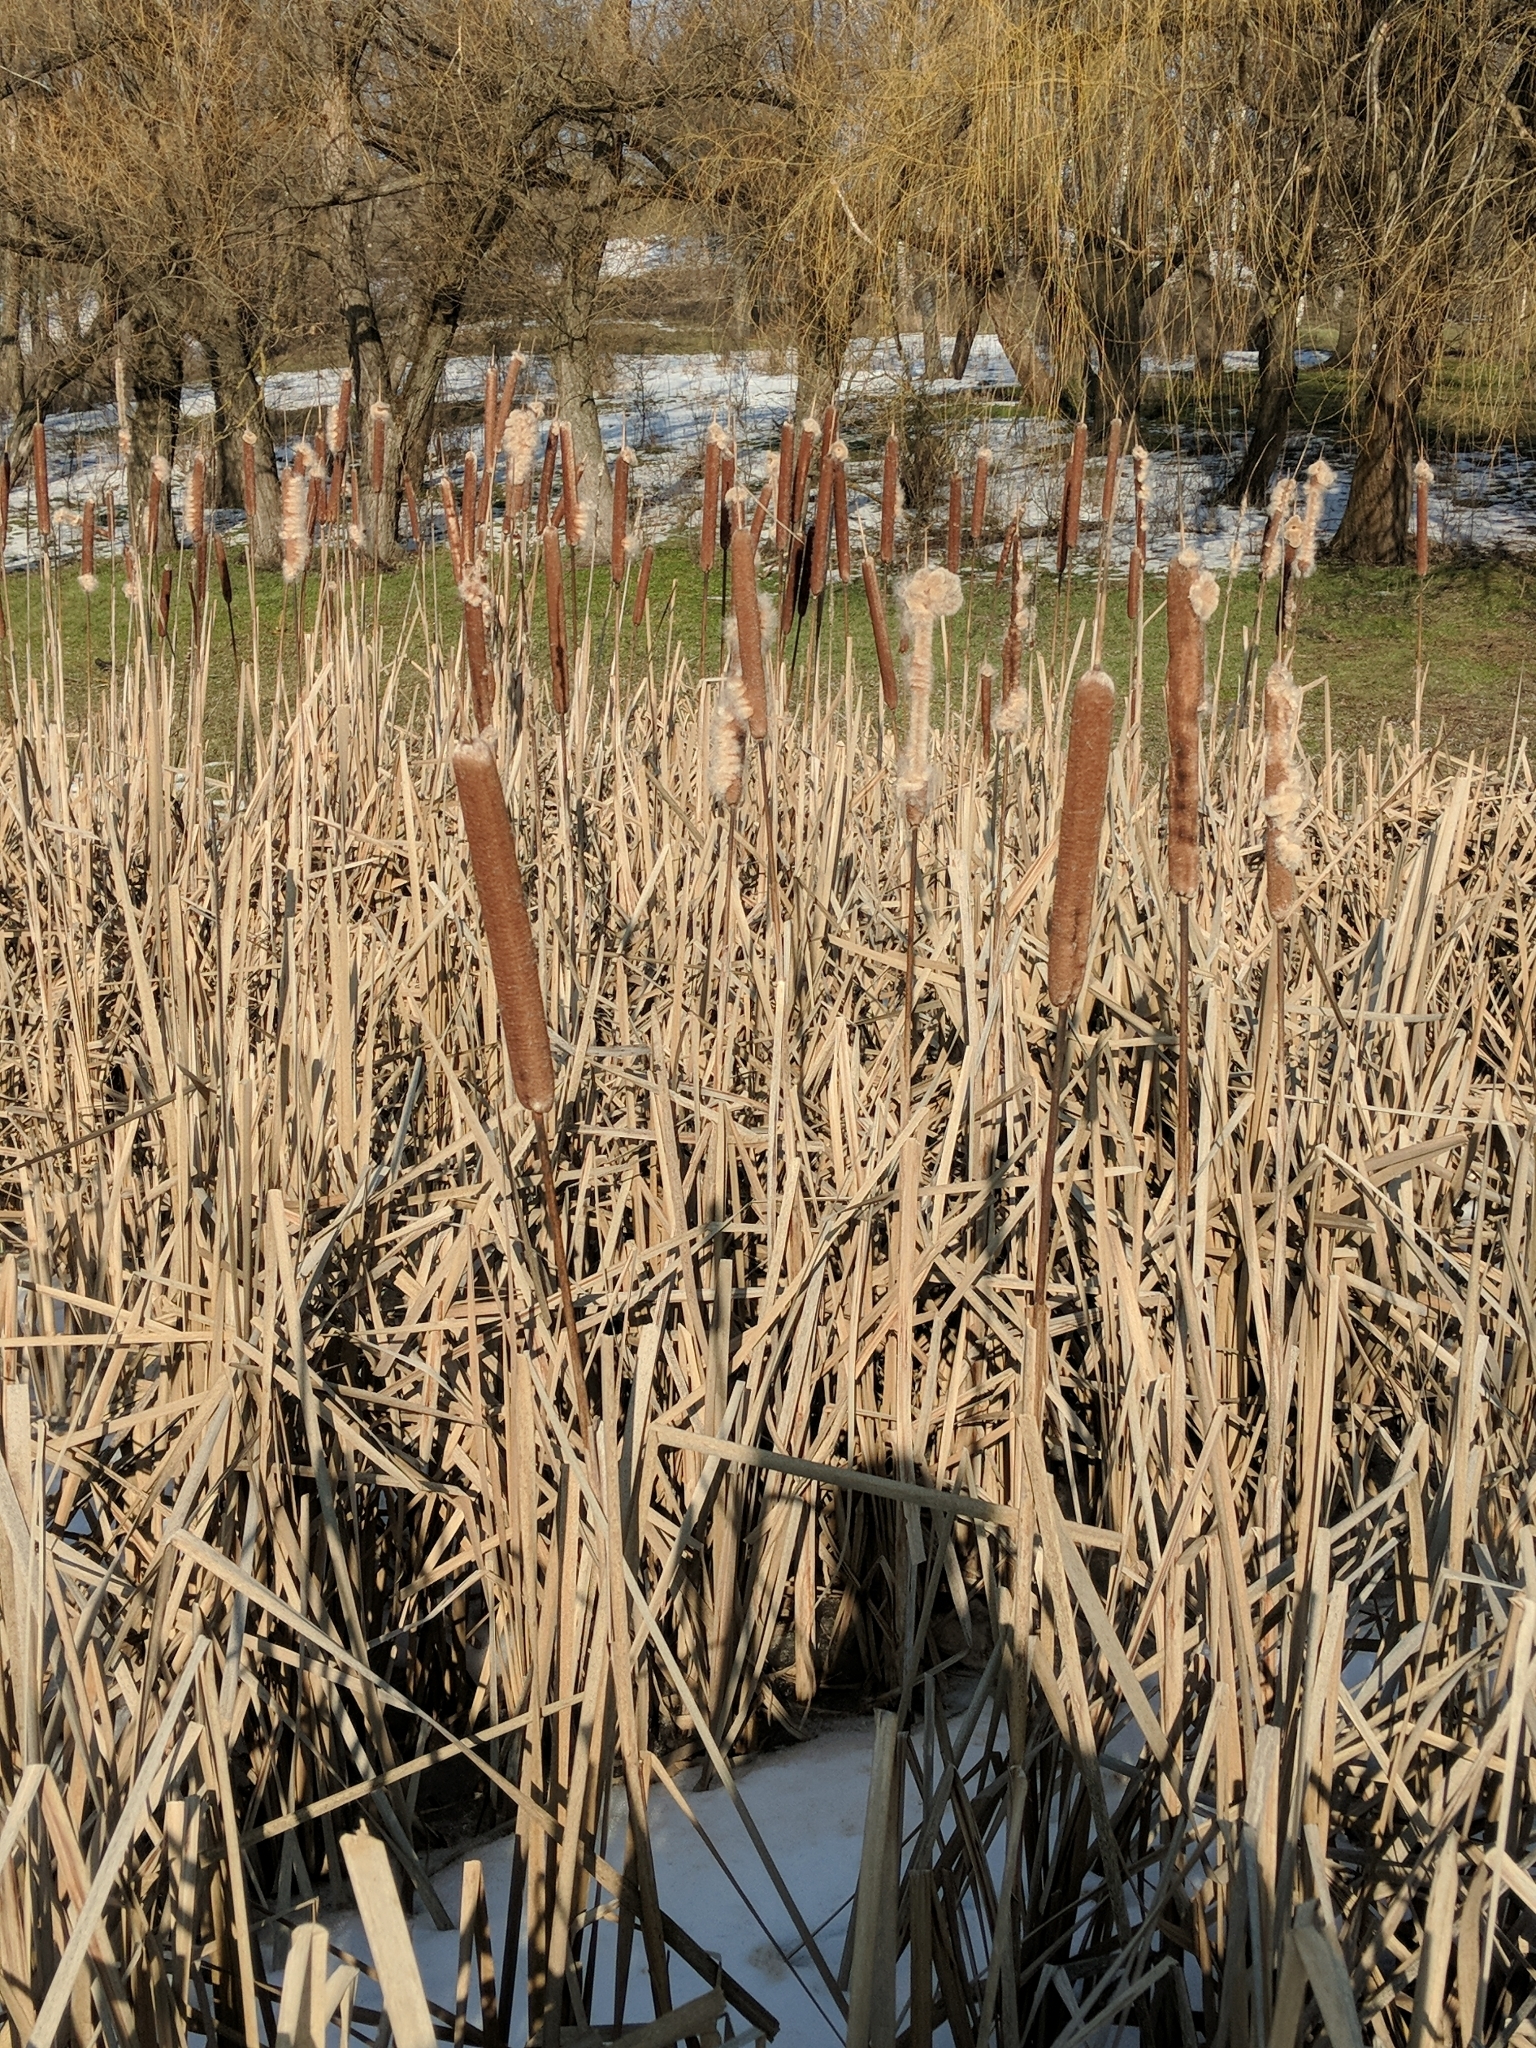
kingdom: Plantae
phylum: Tracheophyta
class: Liliopsida
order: Poales
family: Typhaceae
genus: Typha
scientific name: Typha latifolia
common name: Broadleaf cattail
